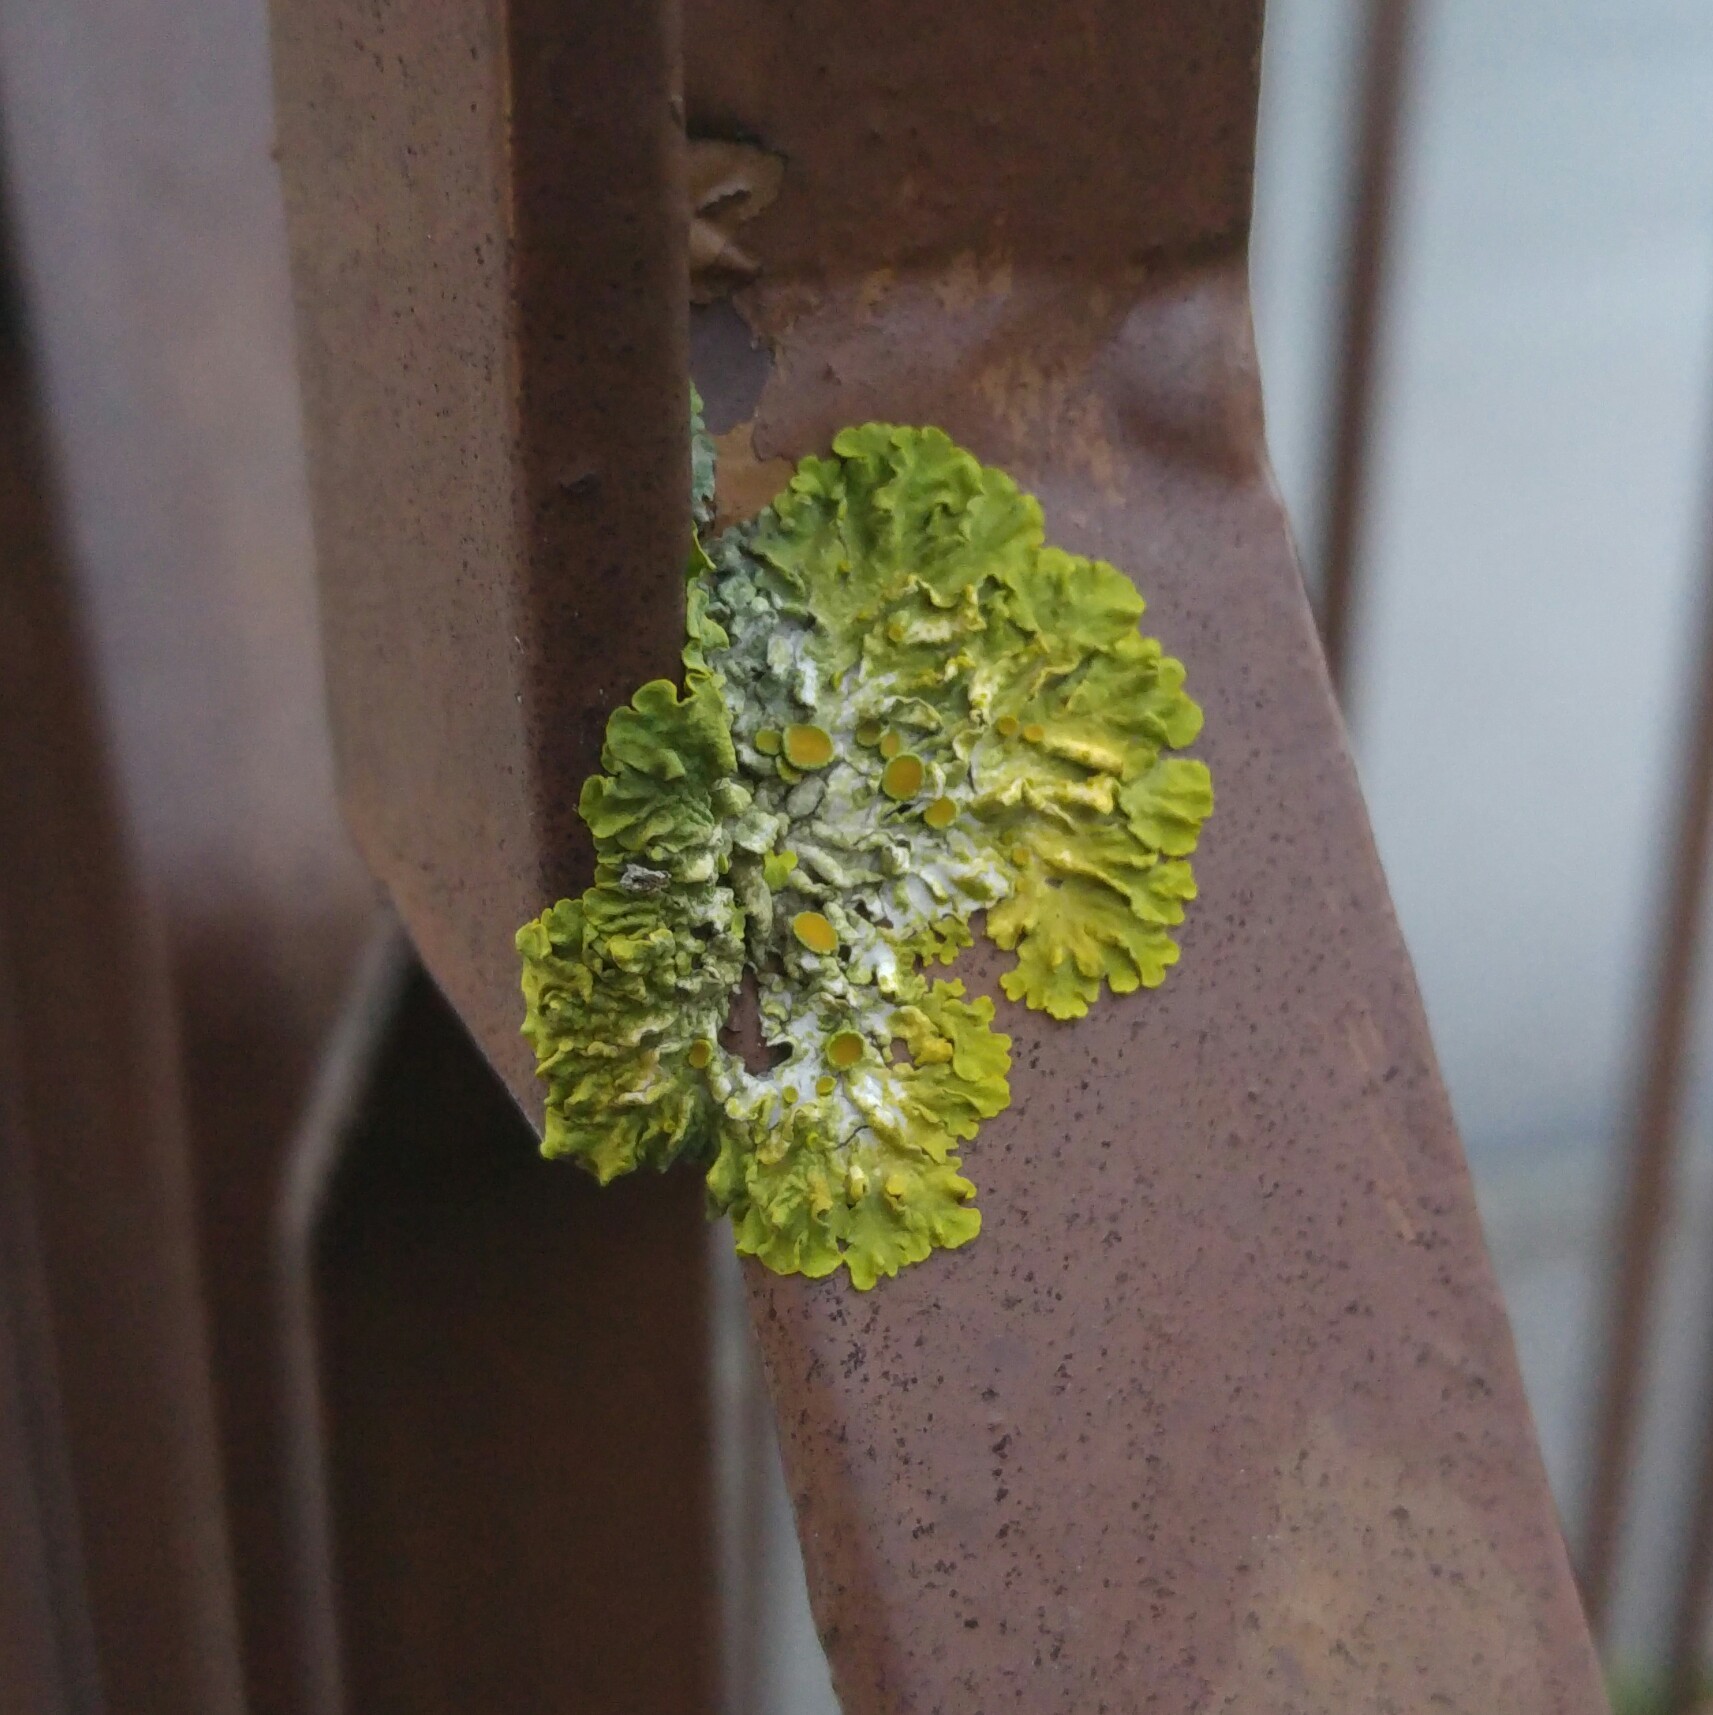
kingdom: Fungi
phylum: Ascomycota
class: Lecanoromycetes
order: Teloschistales
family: Teloschistaceae
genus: Xanthoria
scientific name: Xanthoria parietina
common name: Common orange lichen
